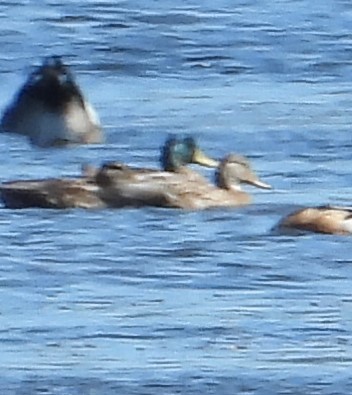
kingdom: Animalia
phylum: Chordata
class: Aves
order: Anseriformes
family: Anatidae
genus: Anas
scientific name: Anas platyrhynchos
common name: Mallard
